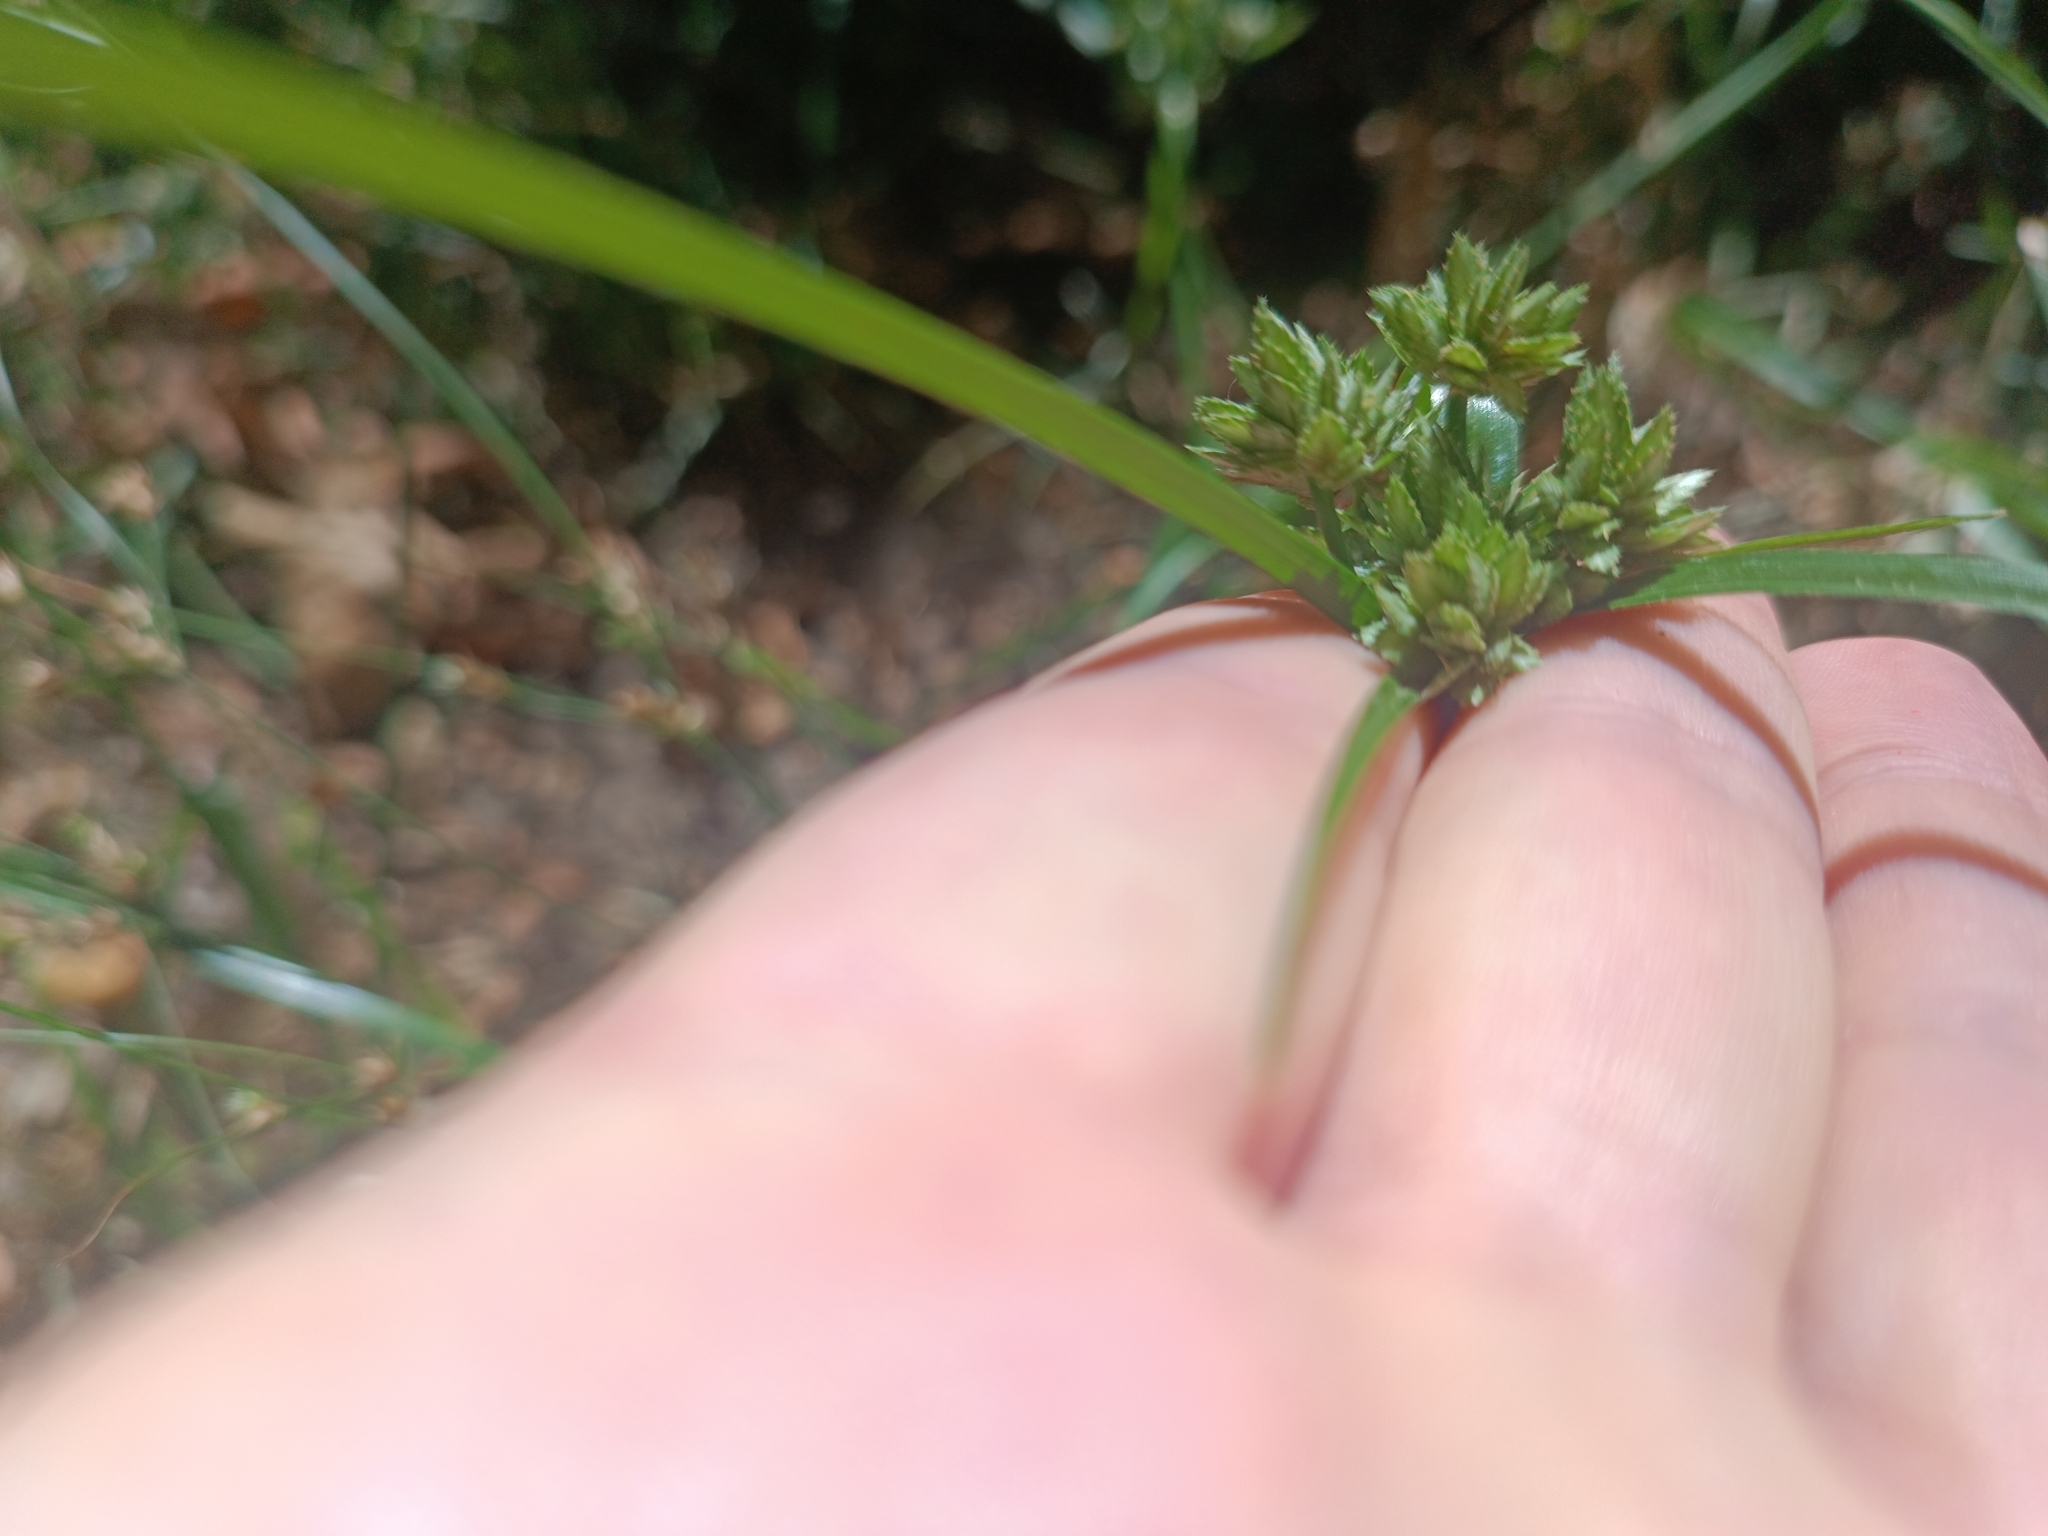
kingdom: Plantae
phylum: Tracheophyta
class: Liliopsida
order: Poales
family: Cyperaceae
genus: Cyperus
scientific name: Cyperus eragrostis
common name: Tall flatsedge
